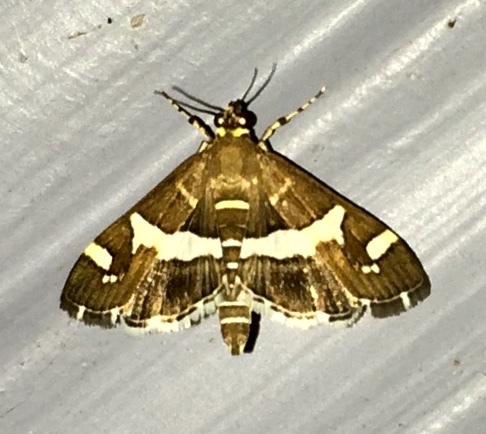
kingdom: Animalia
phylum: Arthropoda
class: Insecta
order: Lepidoptera
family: Crambidae
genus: Spoladea
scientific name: Spoladea recurvalis
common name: Beet webworm moth
